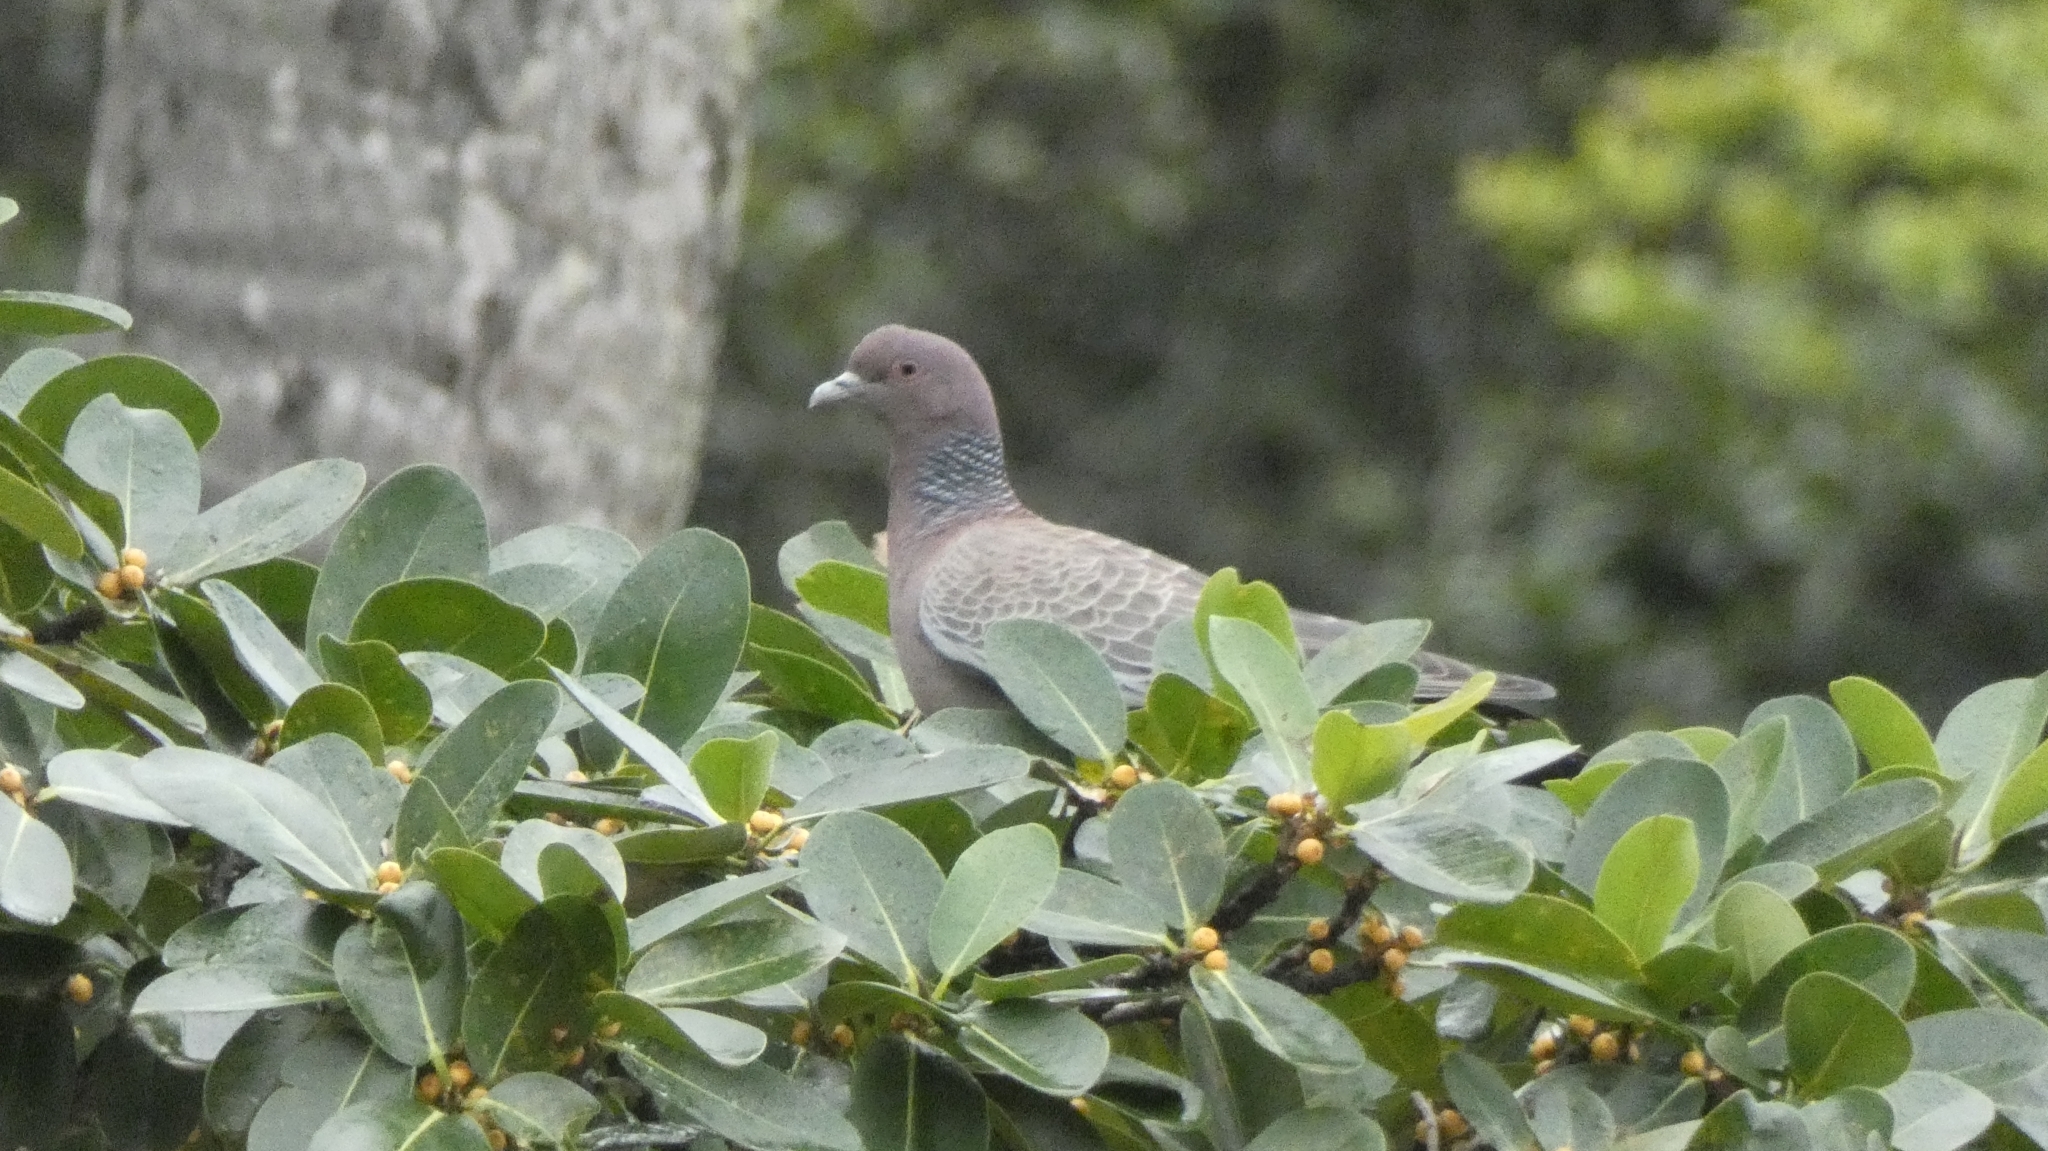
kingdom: Animalia
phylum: Chordata
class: Aves
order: Columbiformes
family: Columbidae
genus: Patagioenas
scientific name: Patagioenas picazuro
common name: Picazuro pigeon
